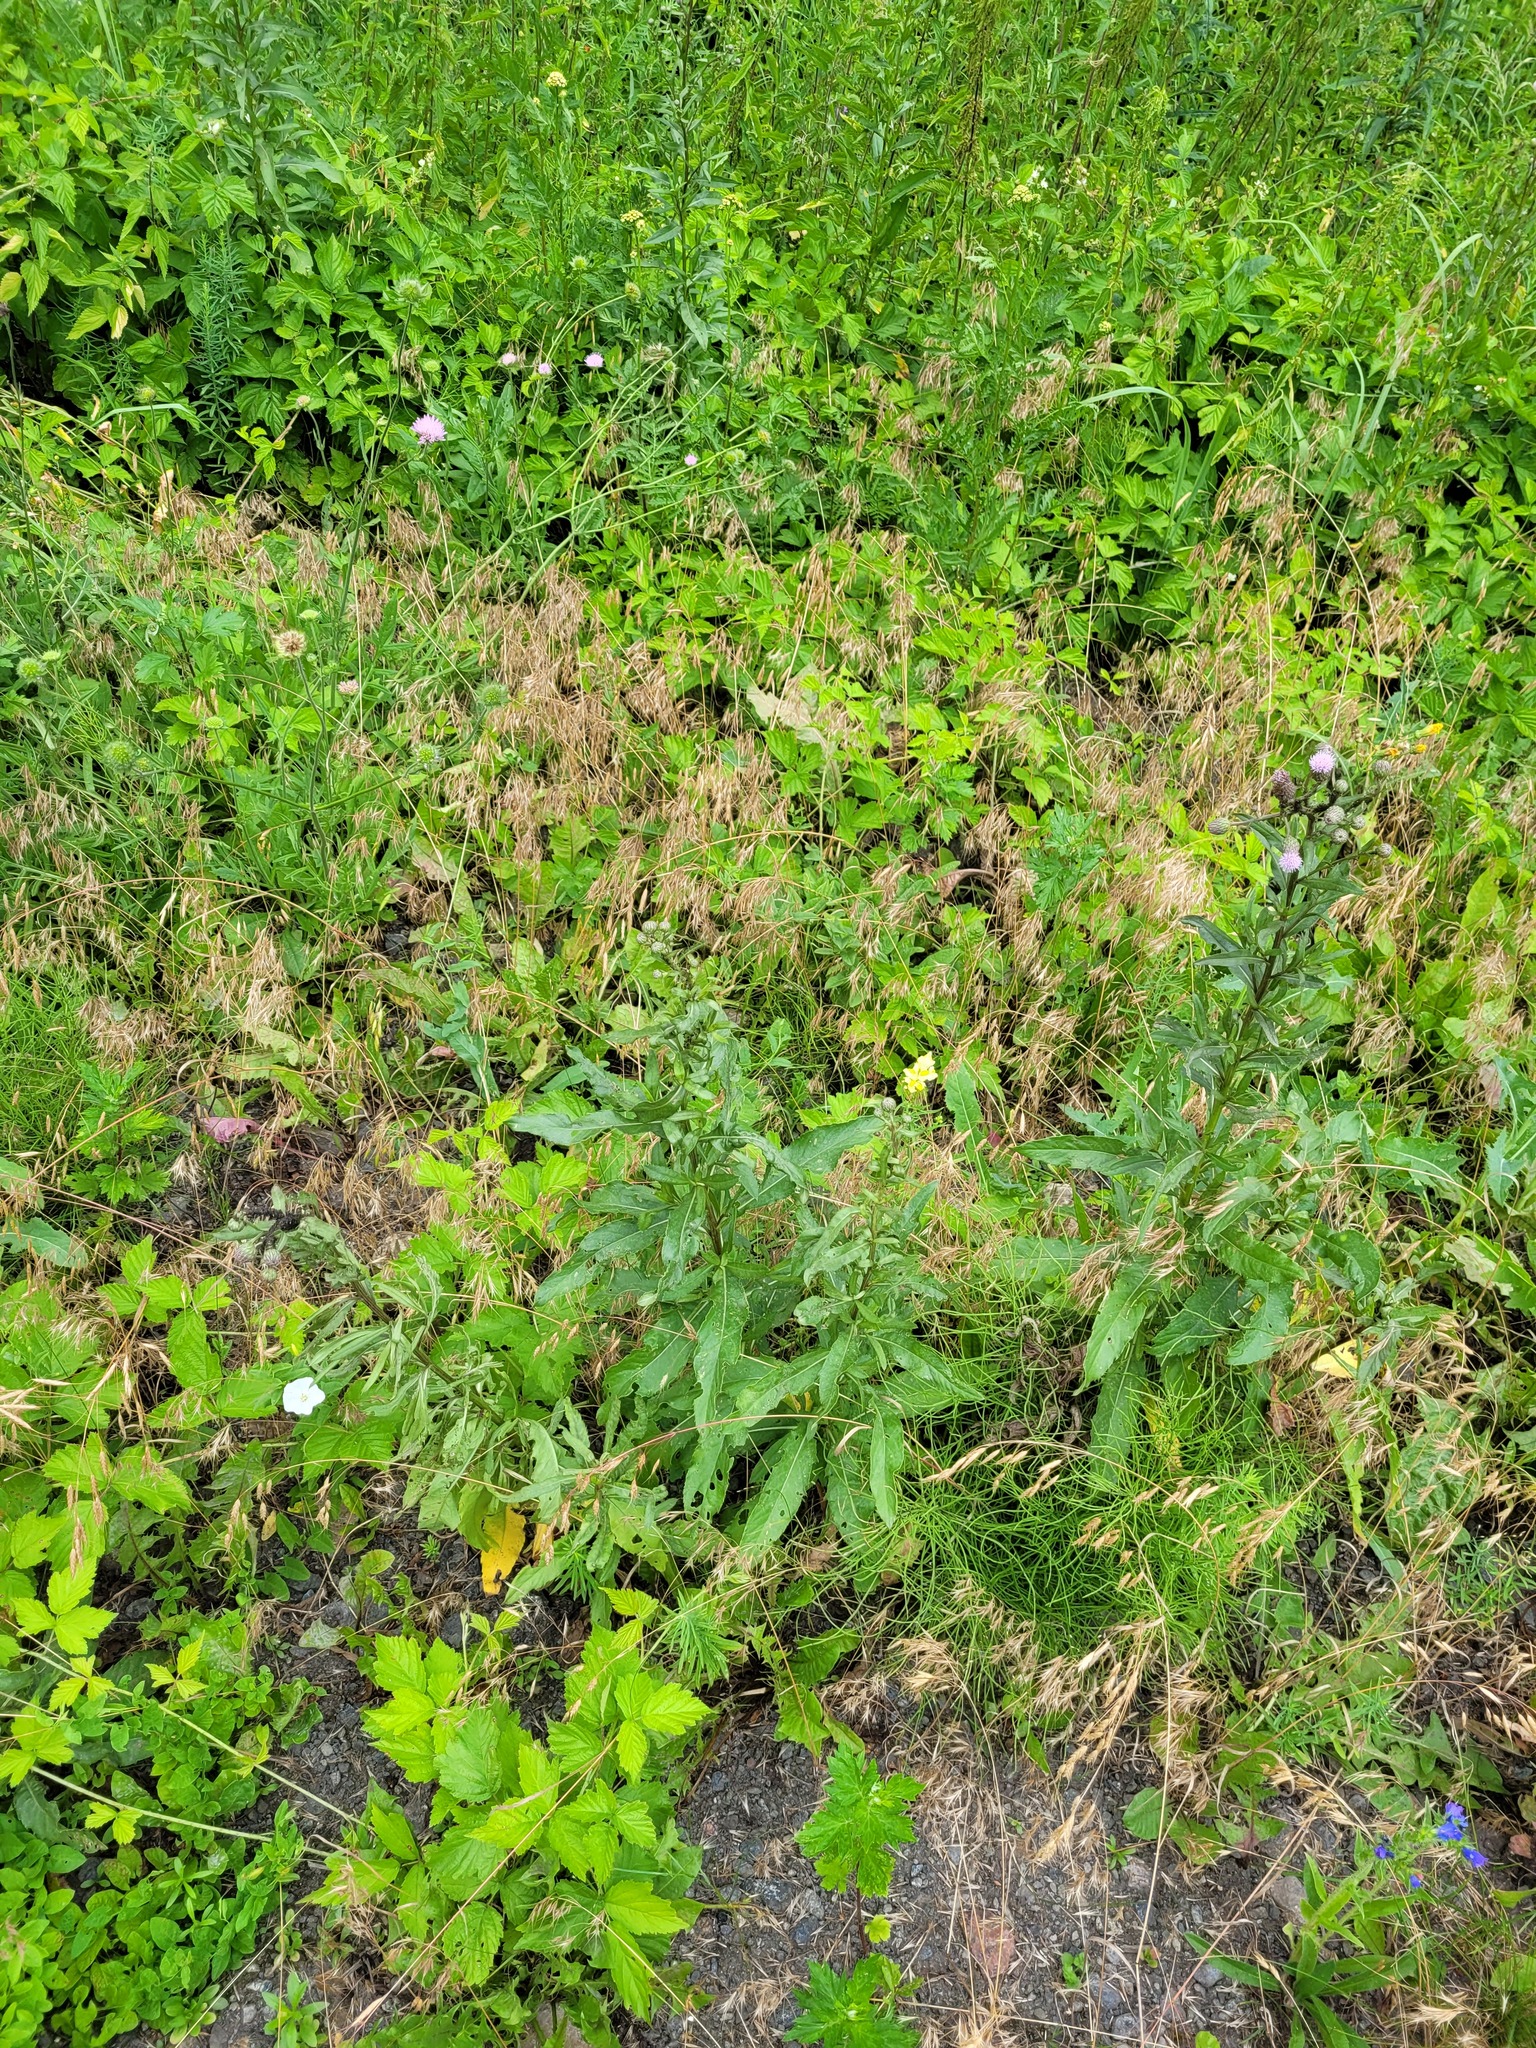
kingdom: Plantae
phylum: Tracheophyta
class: Magnoliopsida
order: Asterales
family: Asteraceae
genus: Cirsium
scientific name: Cirsium arvense
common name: Creeping thistle
